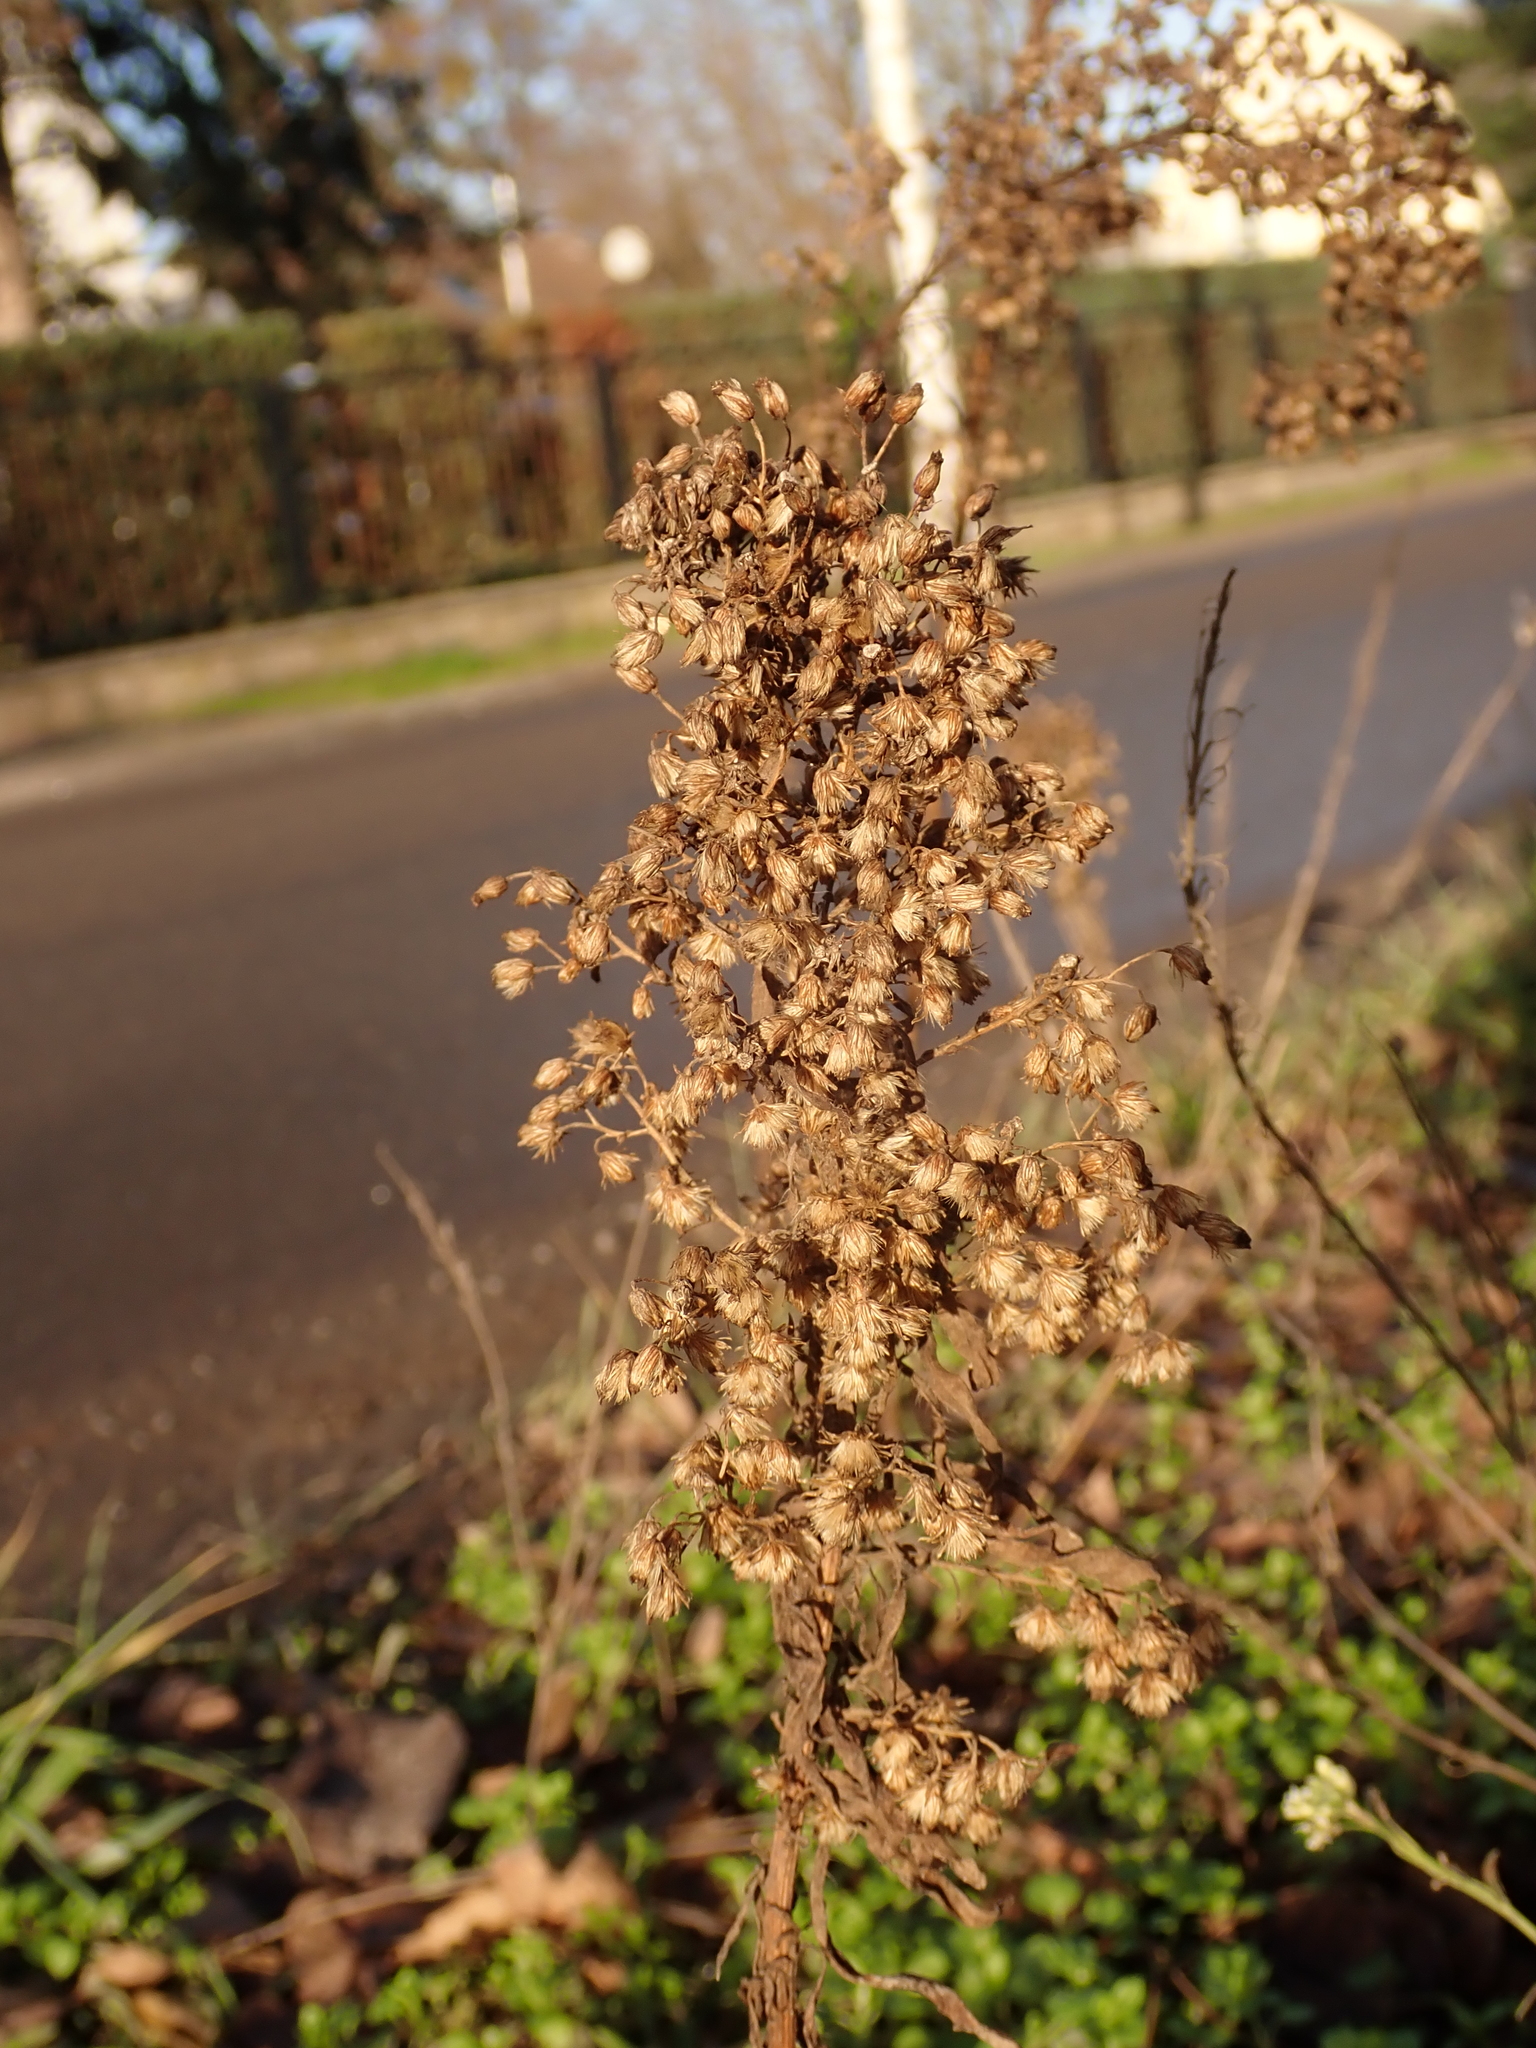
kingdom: Plantae
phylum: Tracheophyta
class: Magnoliopsida
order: Asterales
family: Asteraceae
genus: Erigeron
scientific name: Erigeron canadensis
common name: Canadian fleabane
